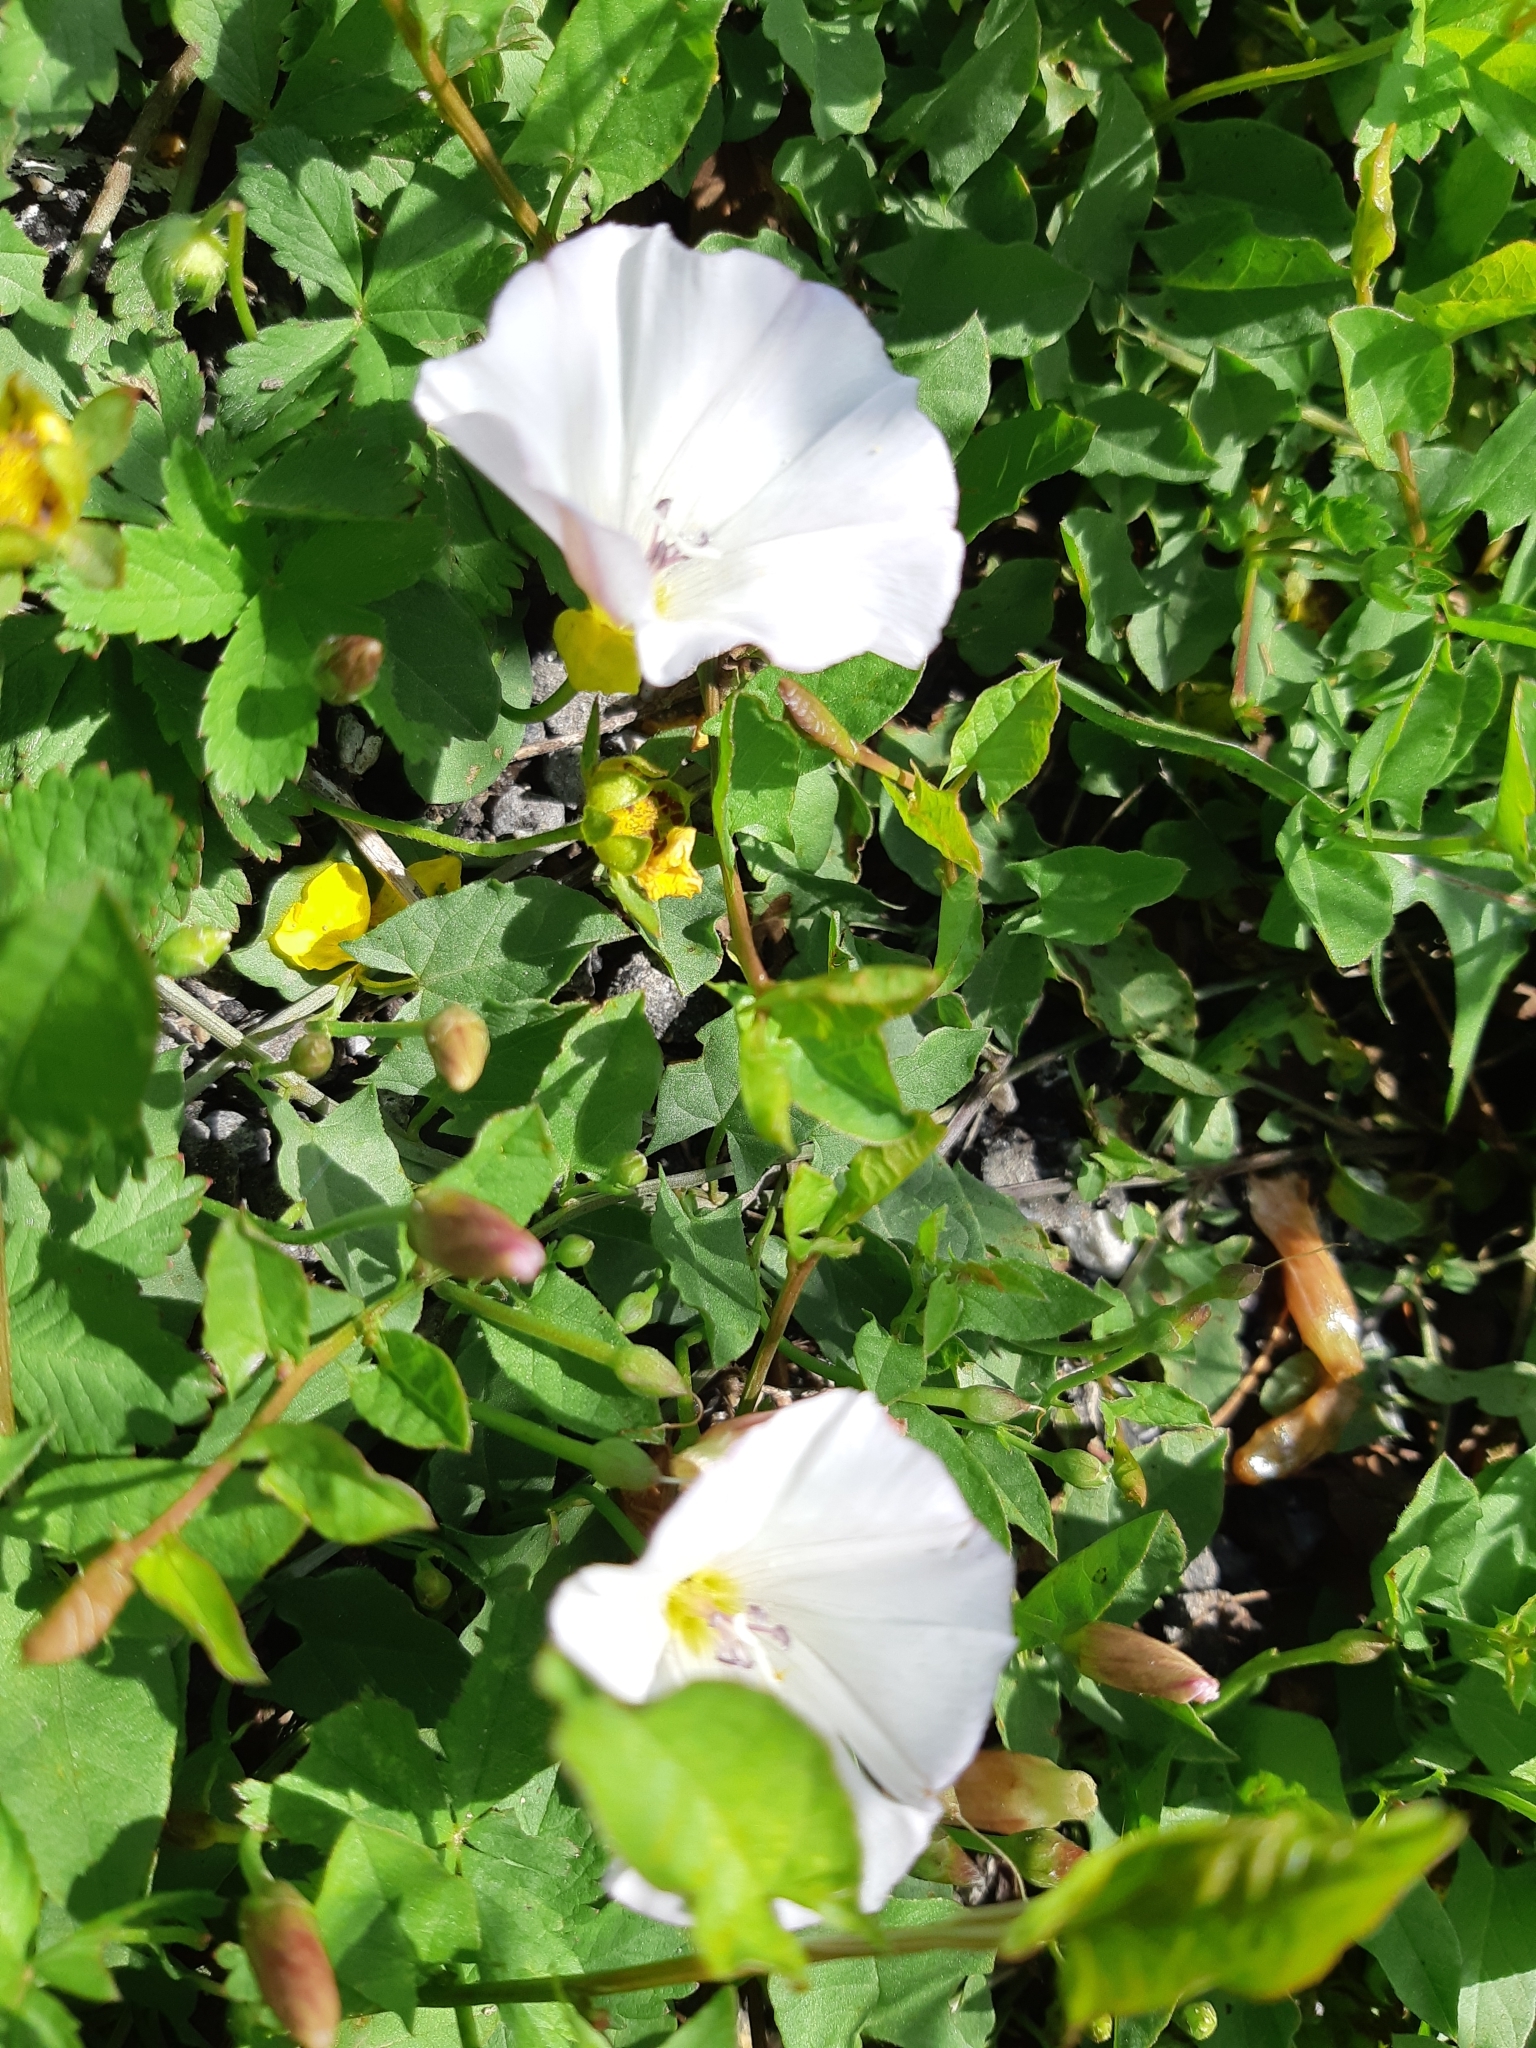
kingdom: Plantae
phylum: Tracheophyta
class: Magnoliopsida
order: Solanales
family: Convolvulaceae
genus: Convolvulus
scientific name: Convolvulus arvensis
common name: Field bindweed
